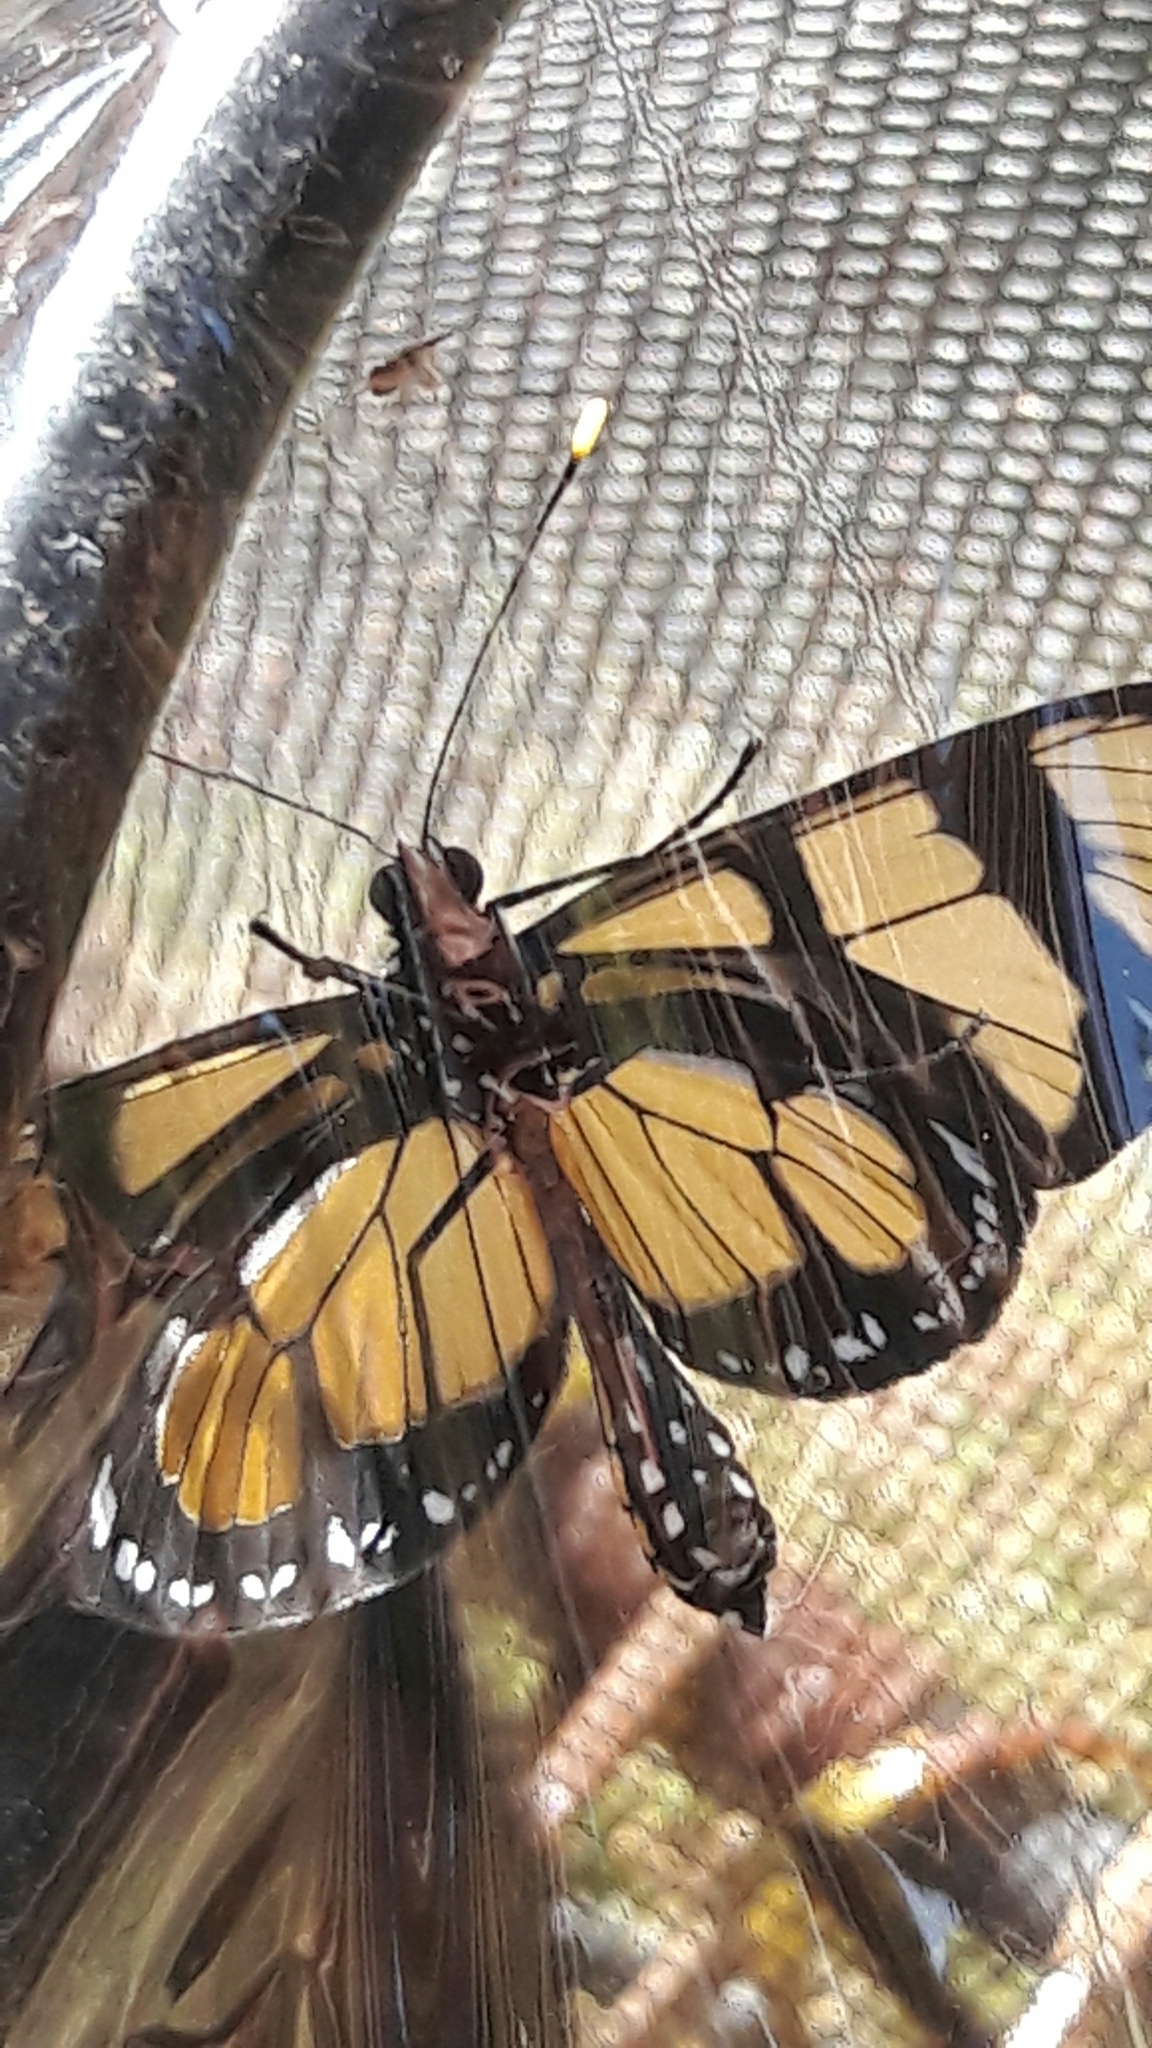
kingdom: Animalia
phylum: Arthropoda
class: Insecta
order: Lepidoptera
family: Nymphalidae
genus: Methona
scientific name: Methona themisto
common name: Themisto amberwing
